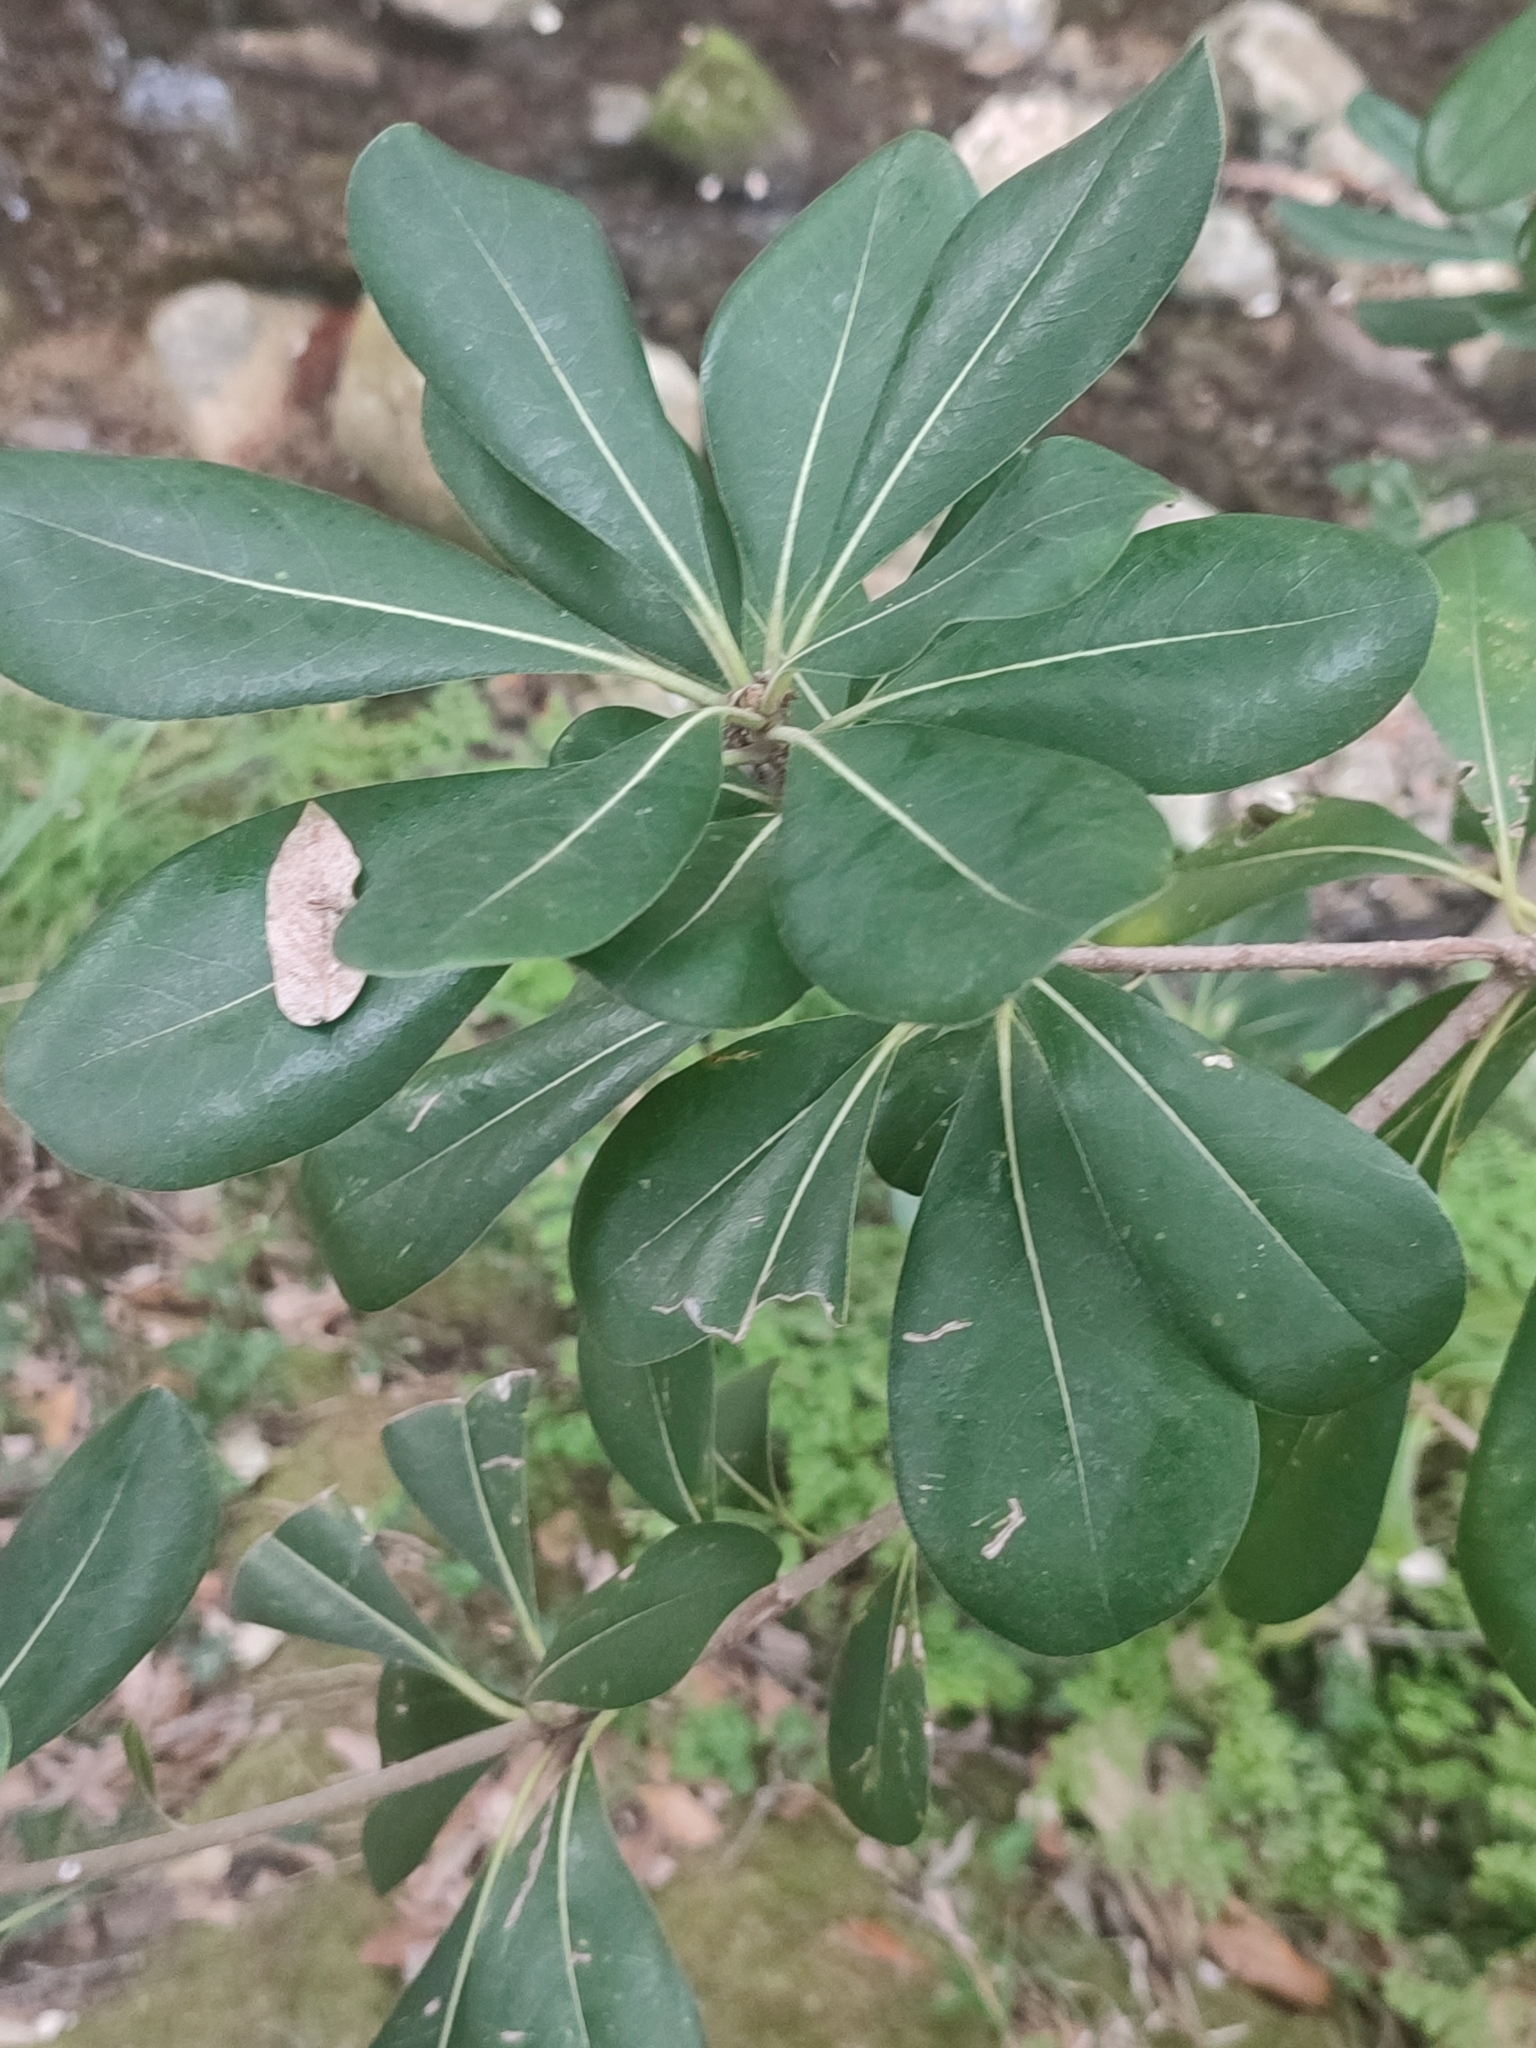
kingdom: Plantae
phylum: Tracheophyta
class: Magnoliopsida
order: Apiales
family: Pittosporaceae
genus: Pittosporum
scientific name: Pittosporum tobira
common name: Japanese cheesewood
